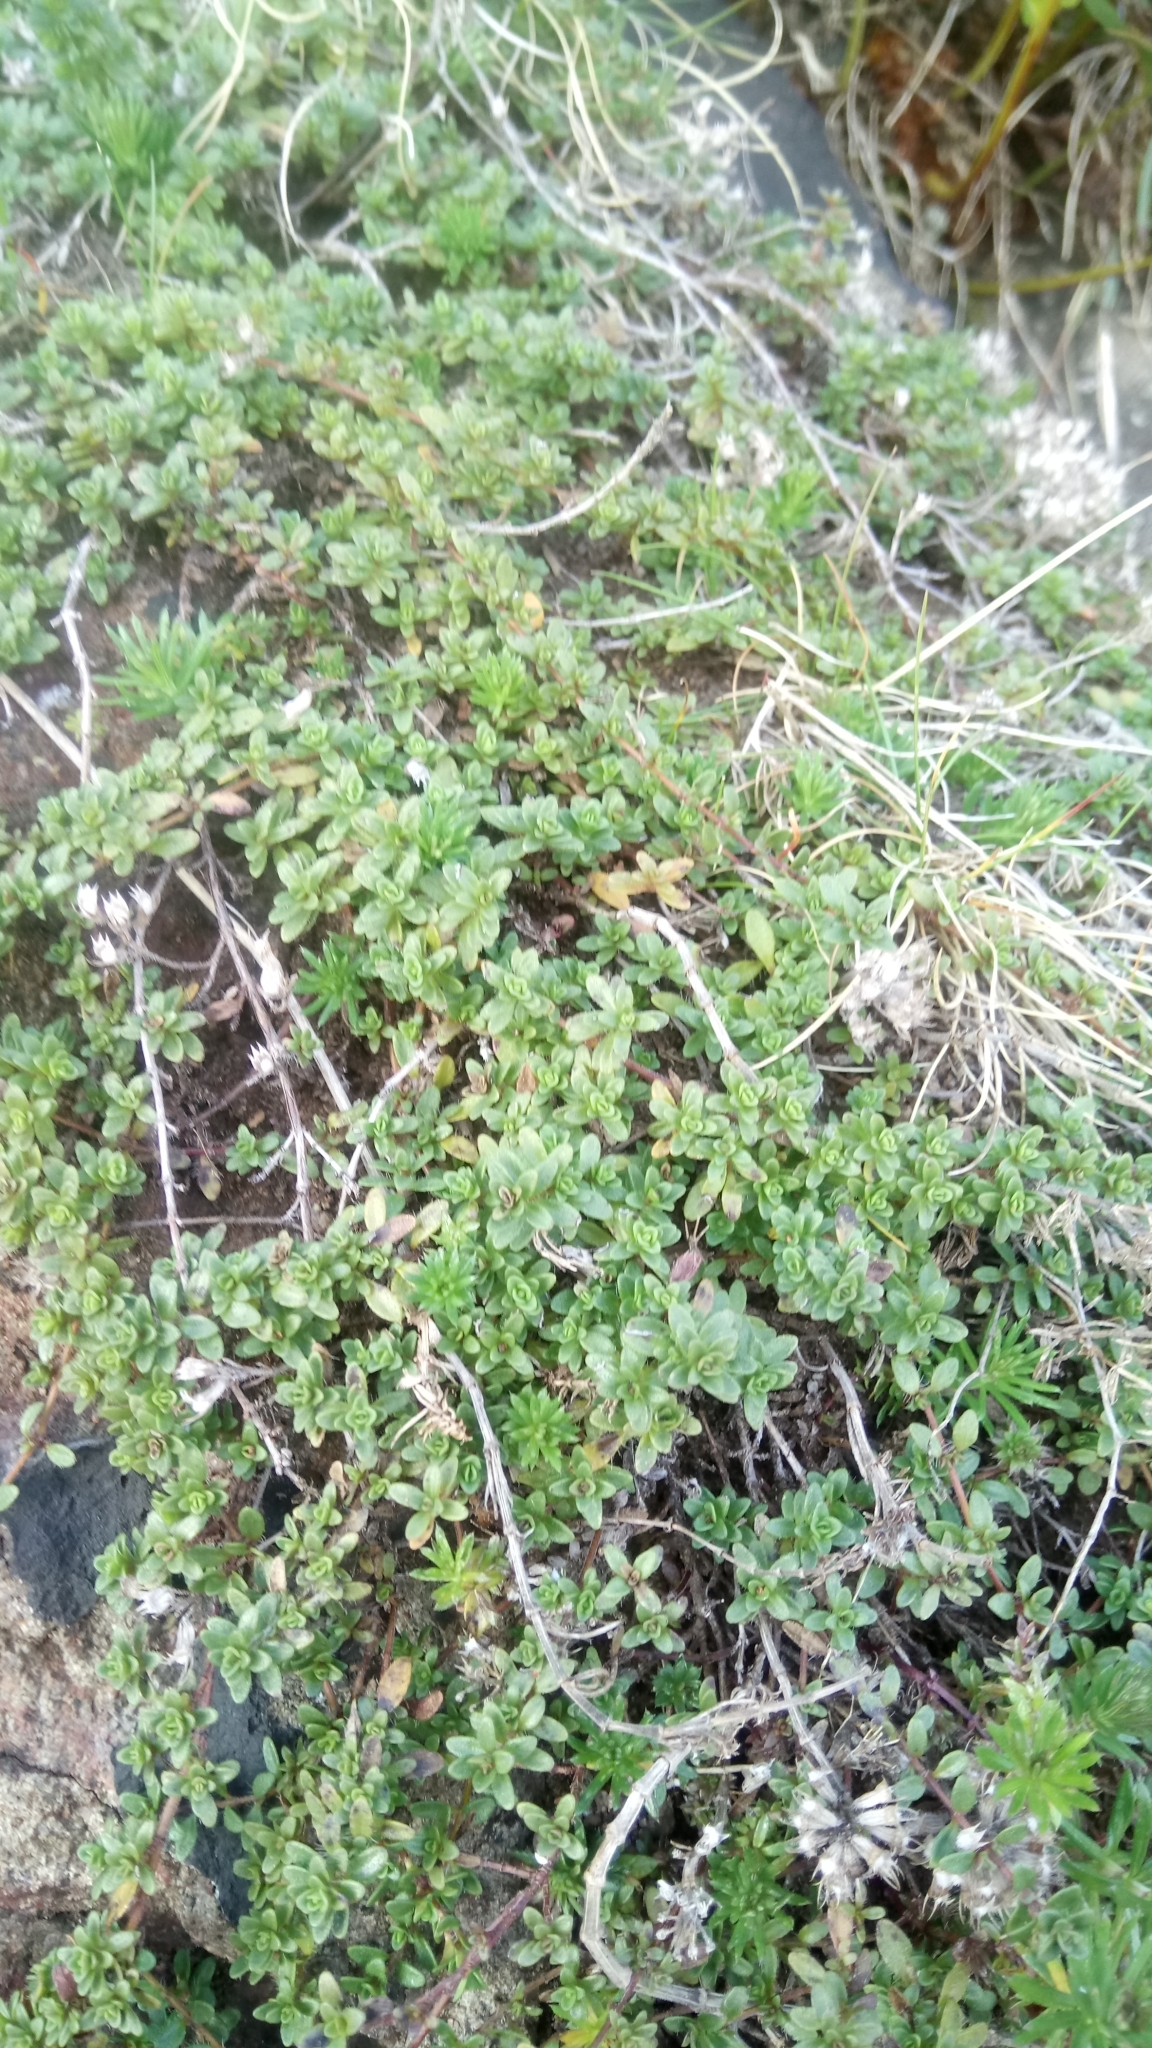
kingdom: Plantae
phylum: Tracheophyta
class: Magnoliopsida
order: Lamiales
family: Lamiaceae
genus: Thymus
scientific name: Thymus praecox
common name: Wild thyme
